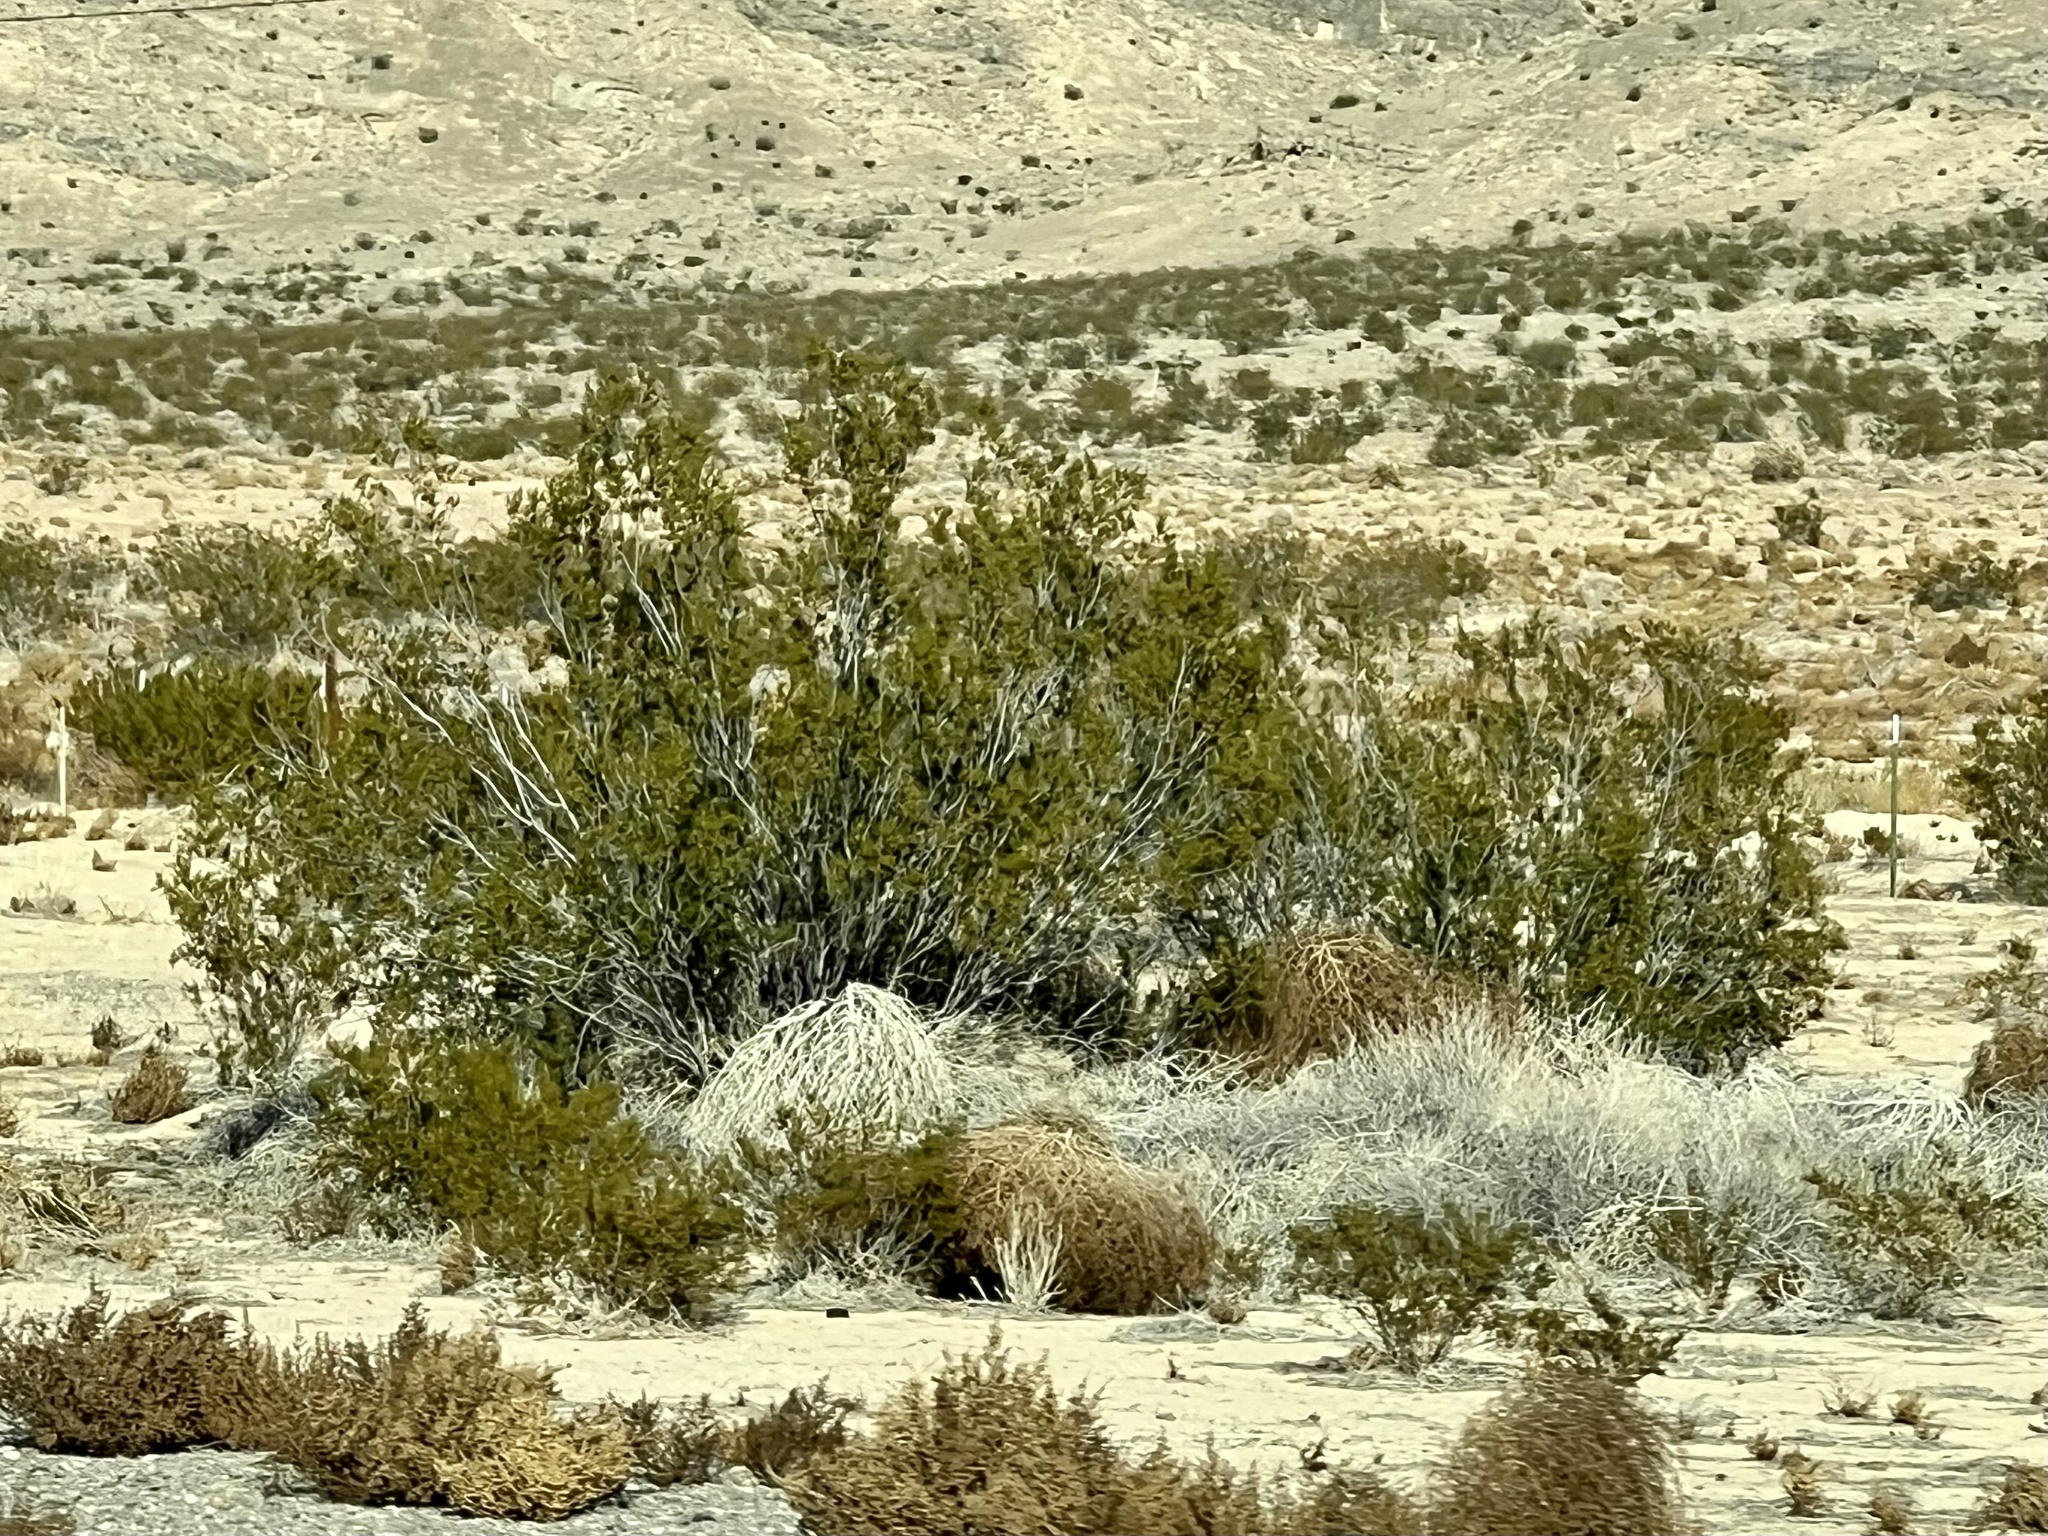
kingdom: Plantae
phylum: Tracheophyta
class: Magnoliopsida
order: Zygophyllales
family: Zygophyllaceae
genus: Larrea
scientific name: Larrea tridentata
